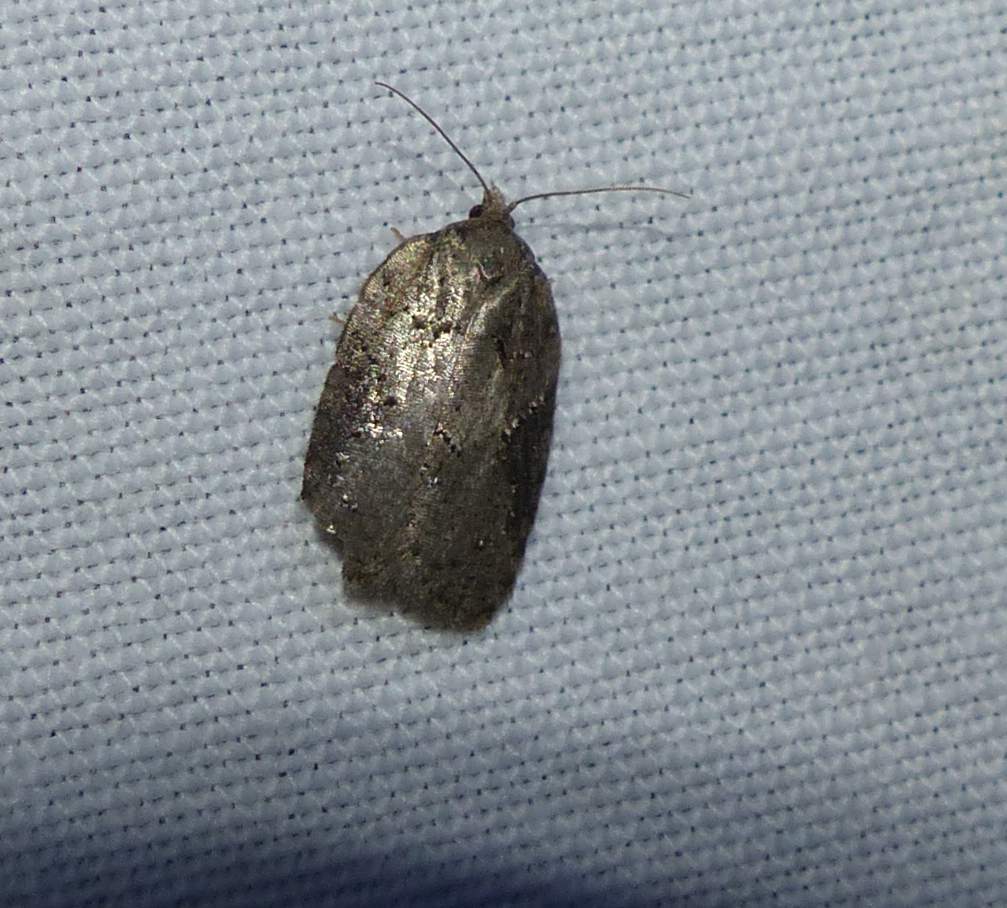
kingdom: Animalia
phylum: Arthropoda
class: Insecta
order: Lepidoptera
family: Tortricidae
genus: Acleris
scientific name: Acleris chalybeana
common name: Lesser maple leafroller
